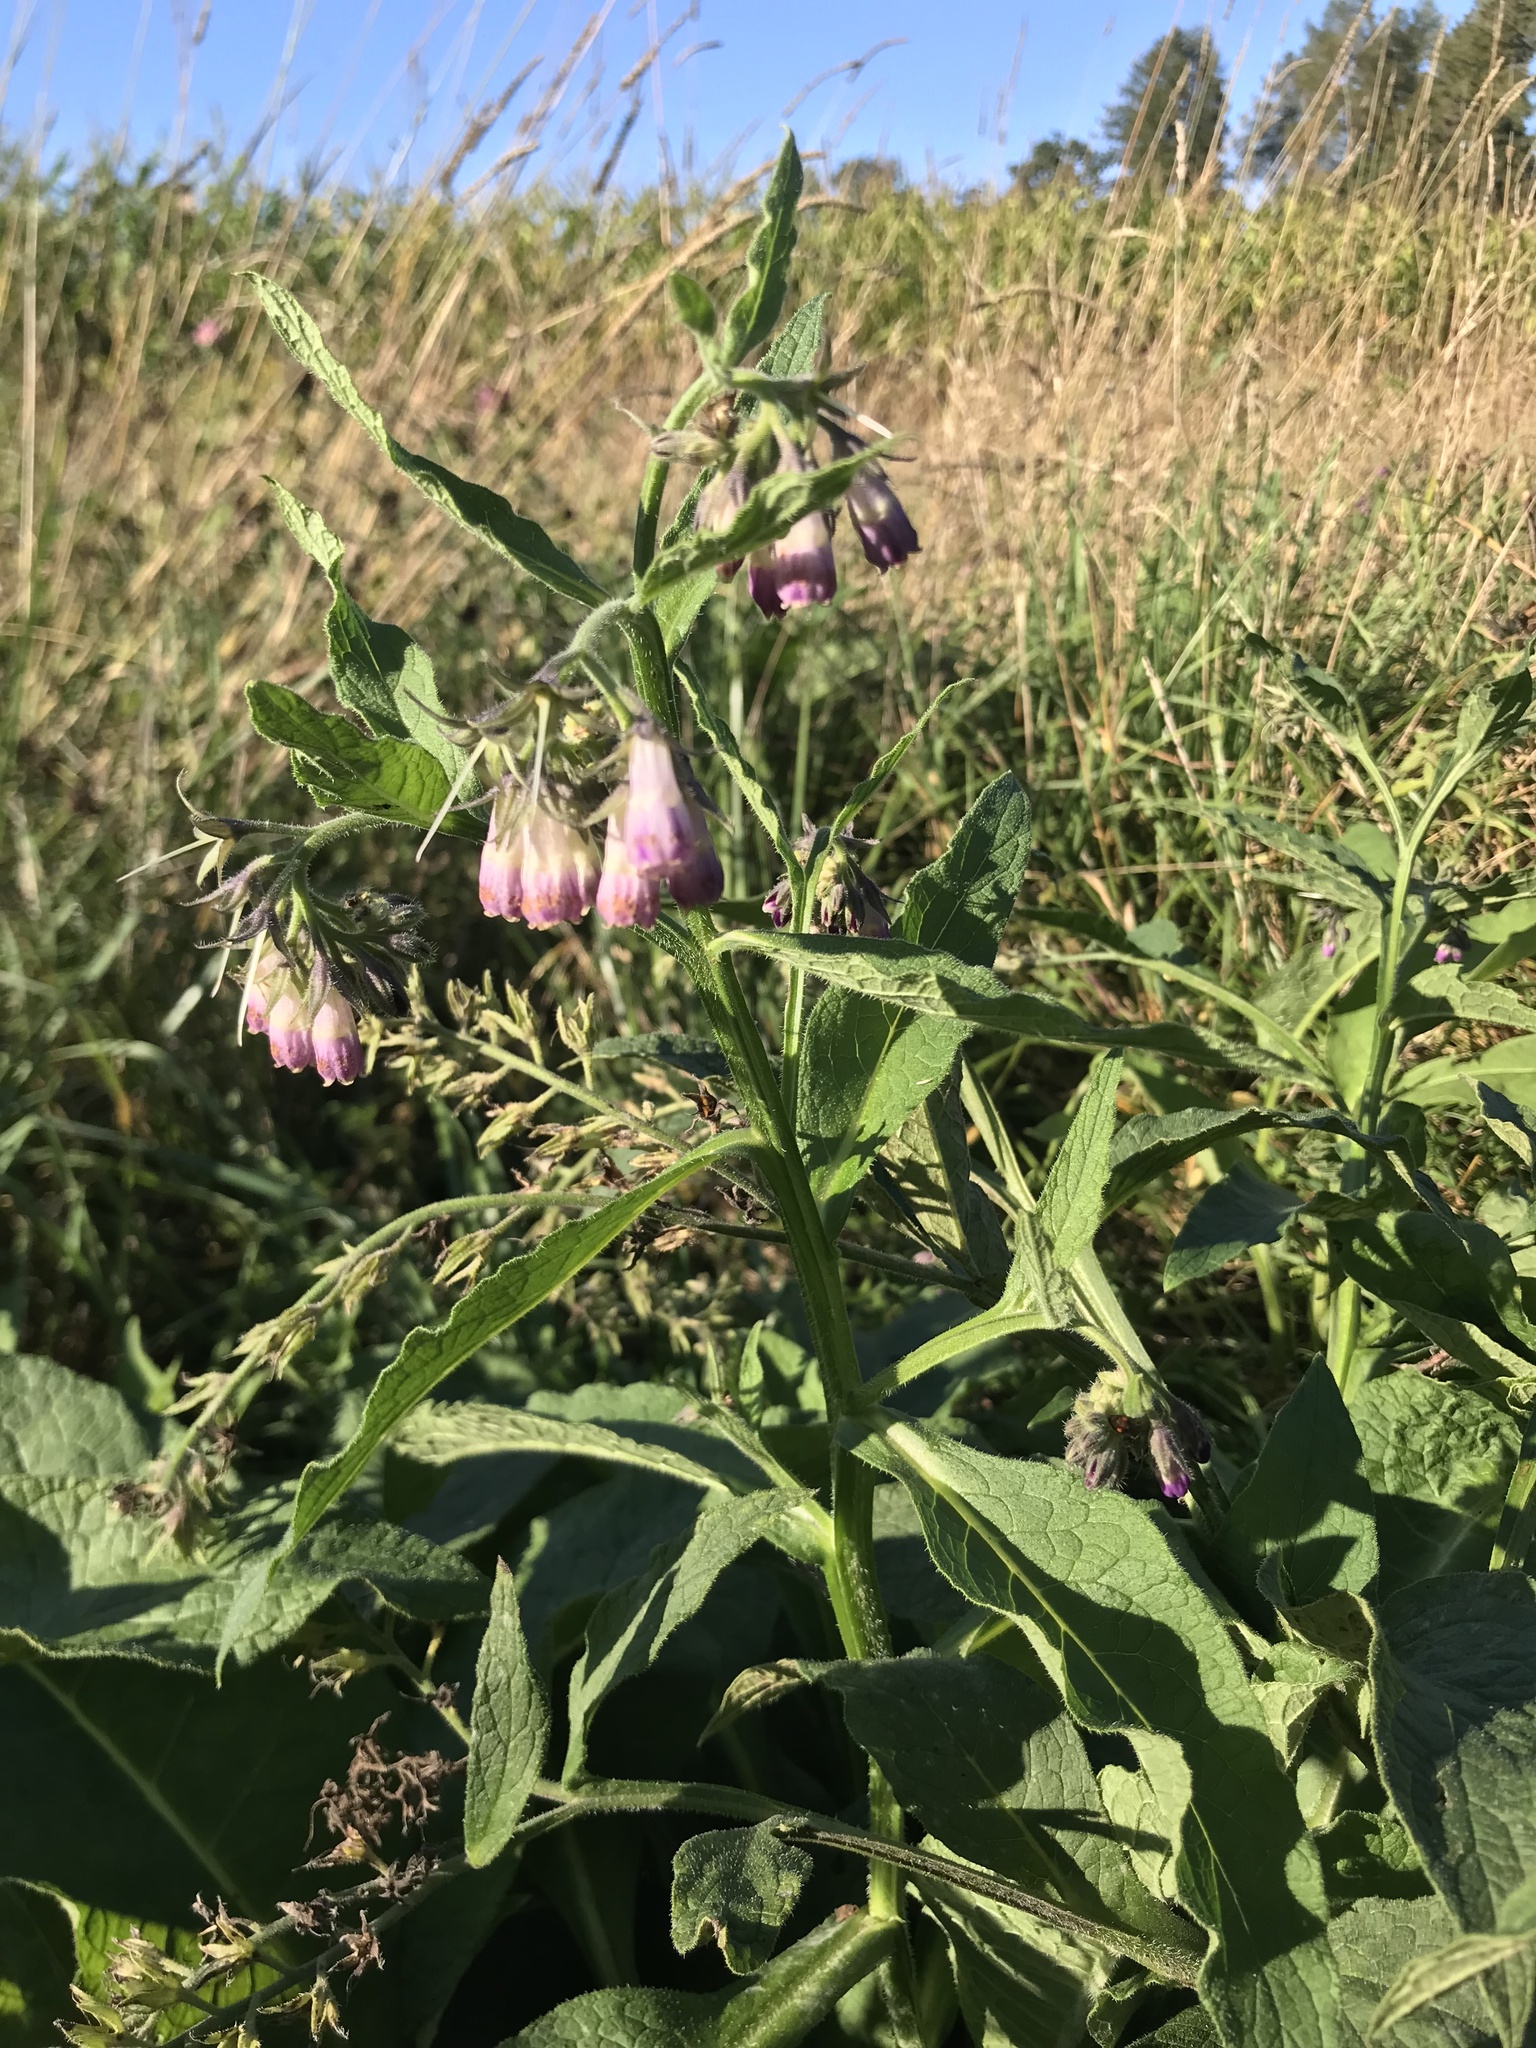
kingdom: Plantae
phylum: Tracheophyta
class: Magnoliopsida
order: Boraginales
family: Boraginaceae
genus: Symphytum
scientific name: Symphytum officinale
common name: Common comfrey
